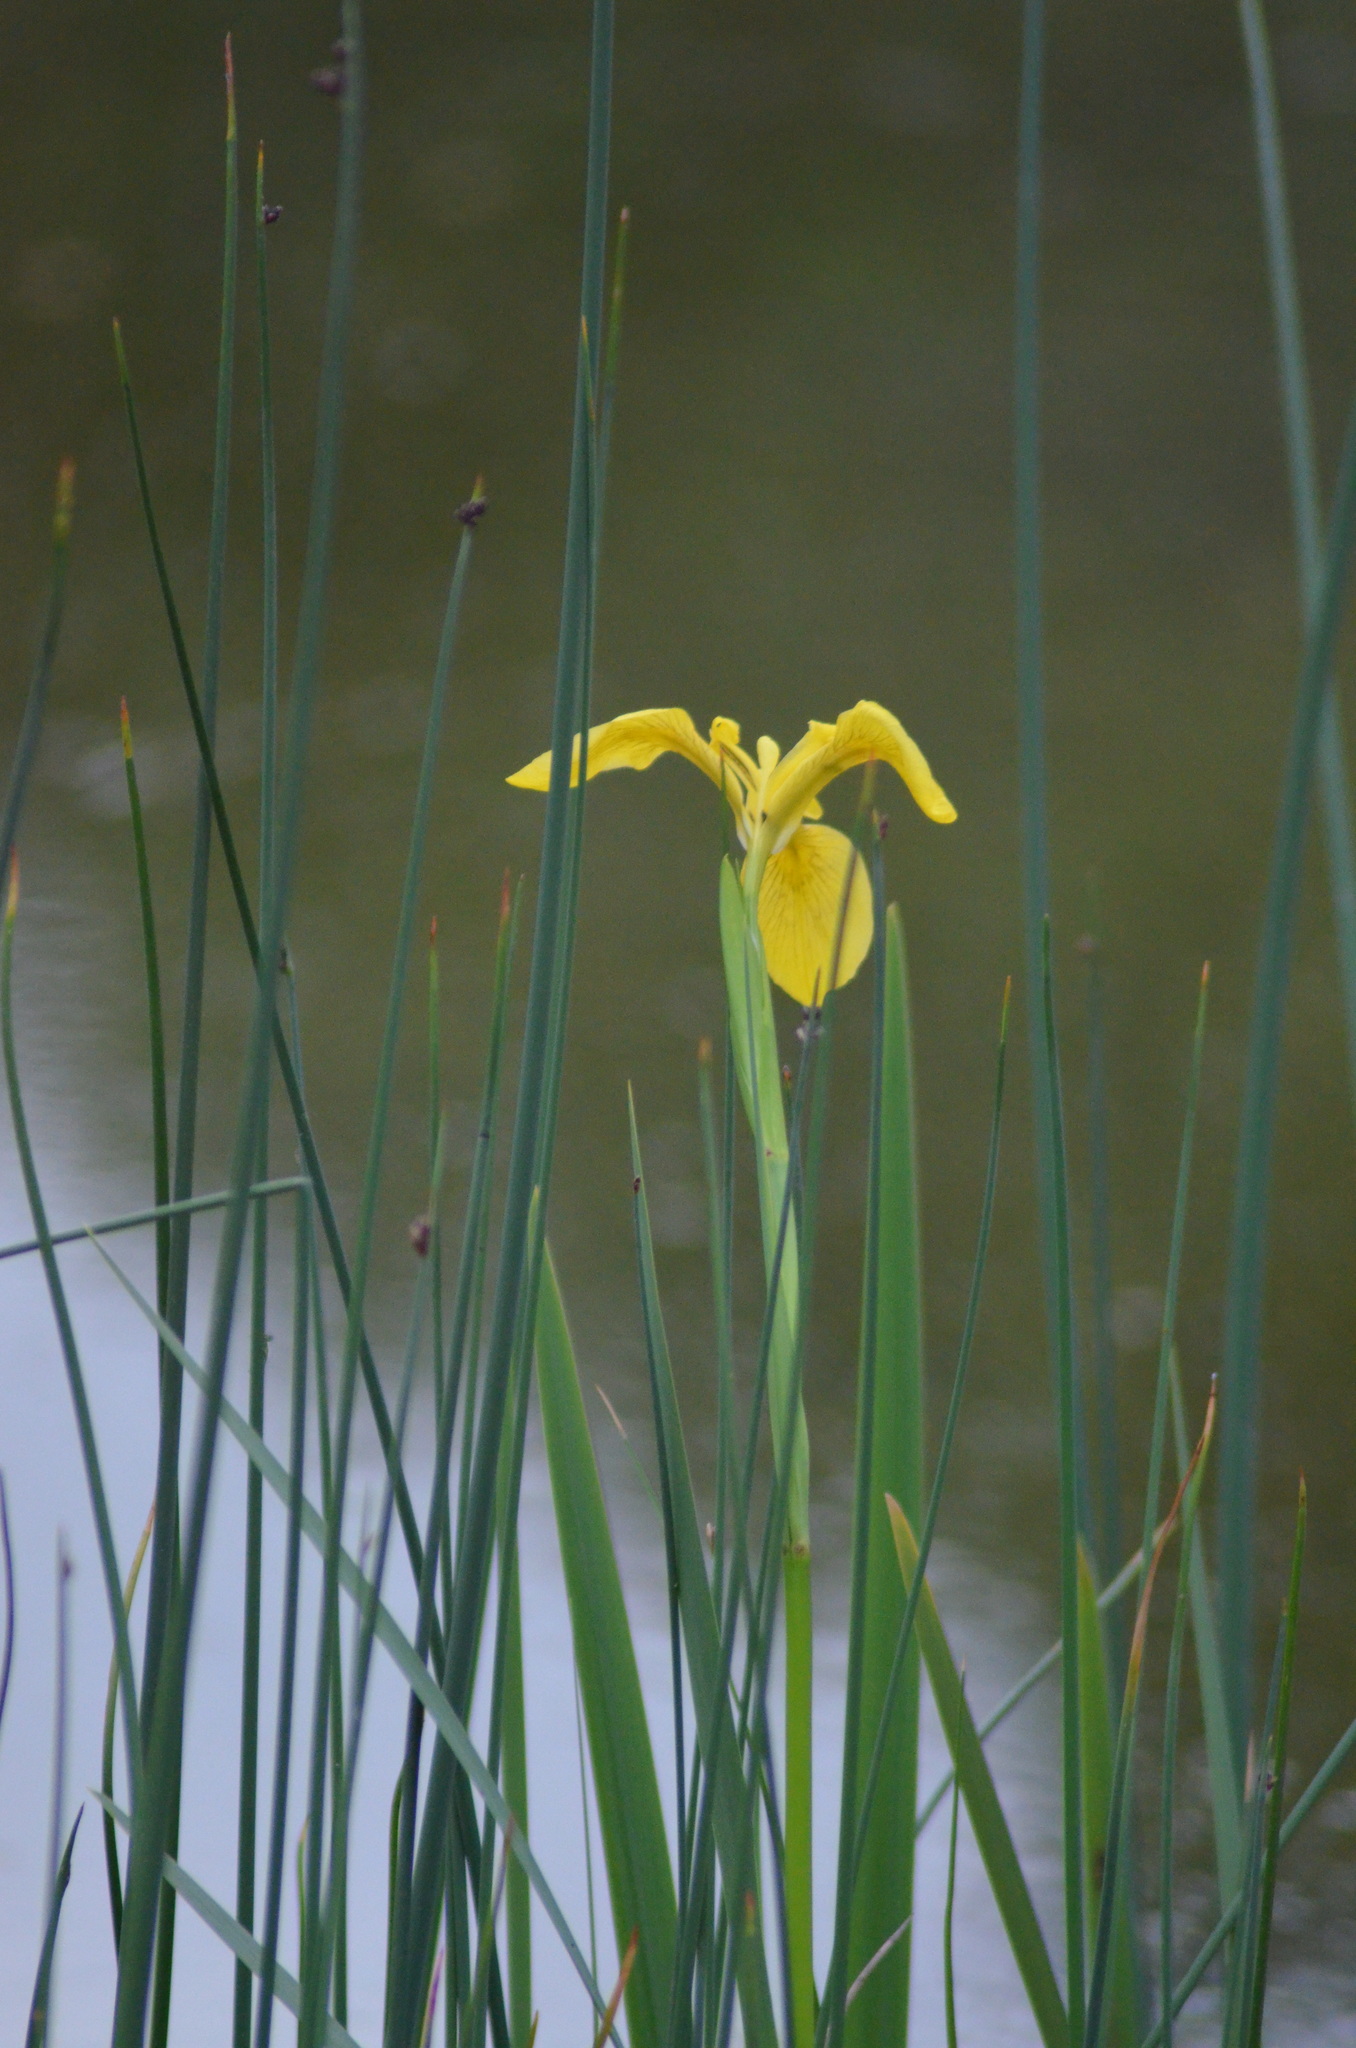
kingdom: Plantae
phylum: Tracheophyta
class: Liliopsida
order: Asparagales
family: Iridaceae
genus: Iris
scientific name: Iris pseudacorus
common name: Yellow flag
